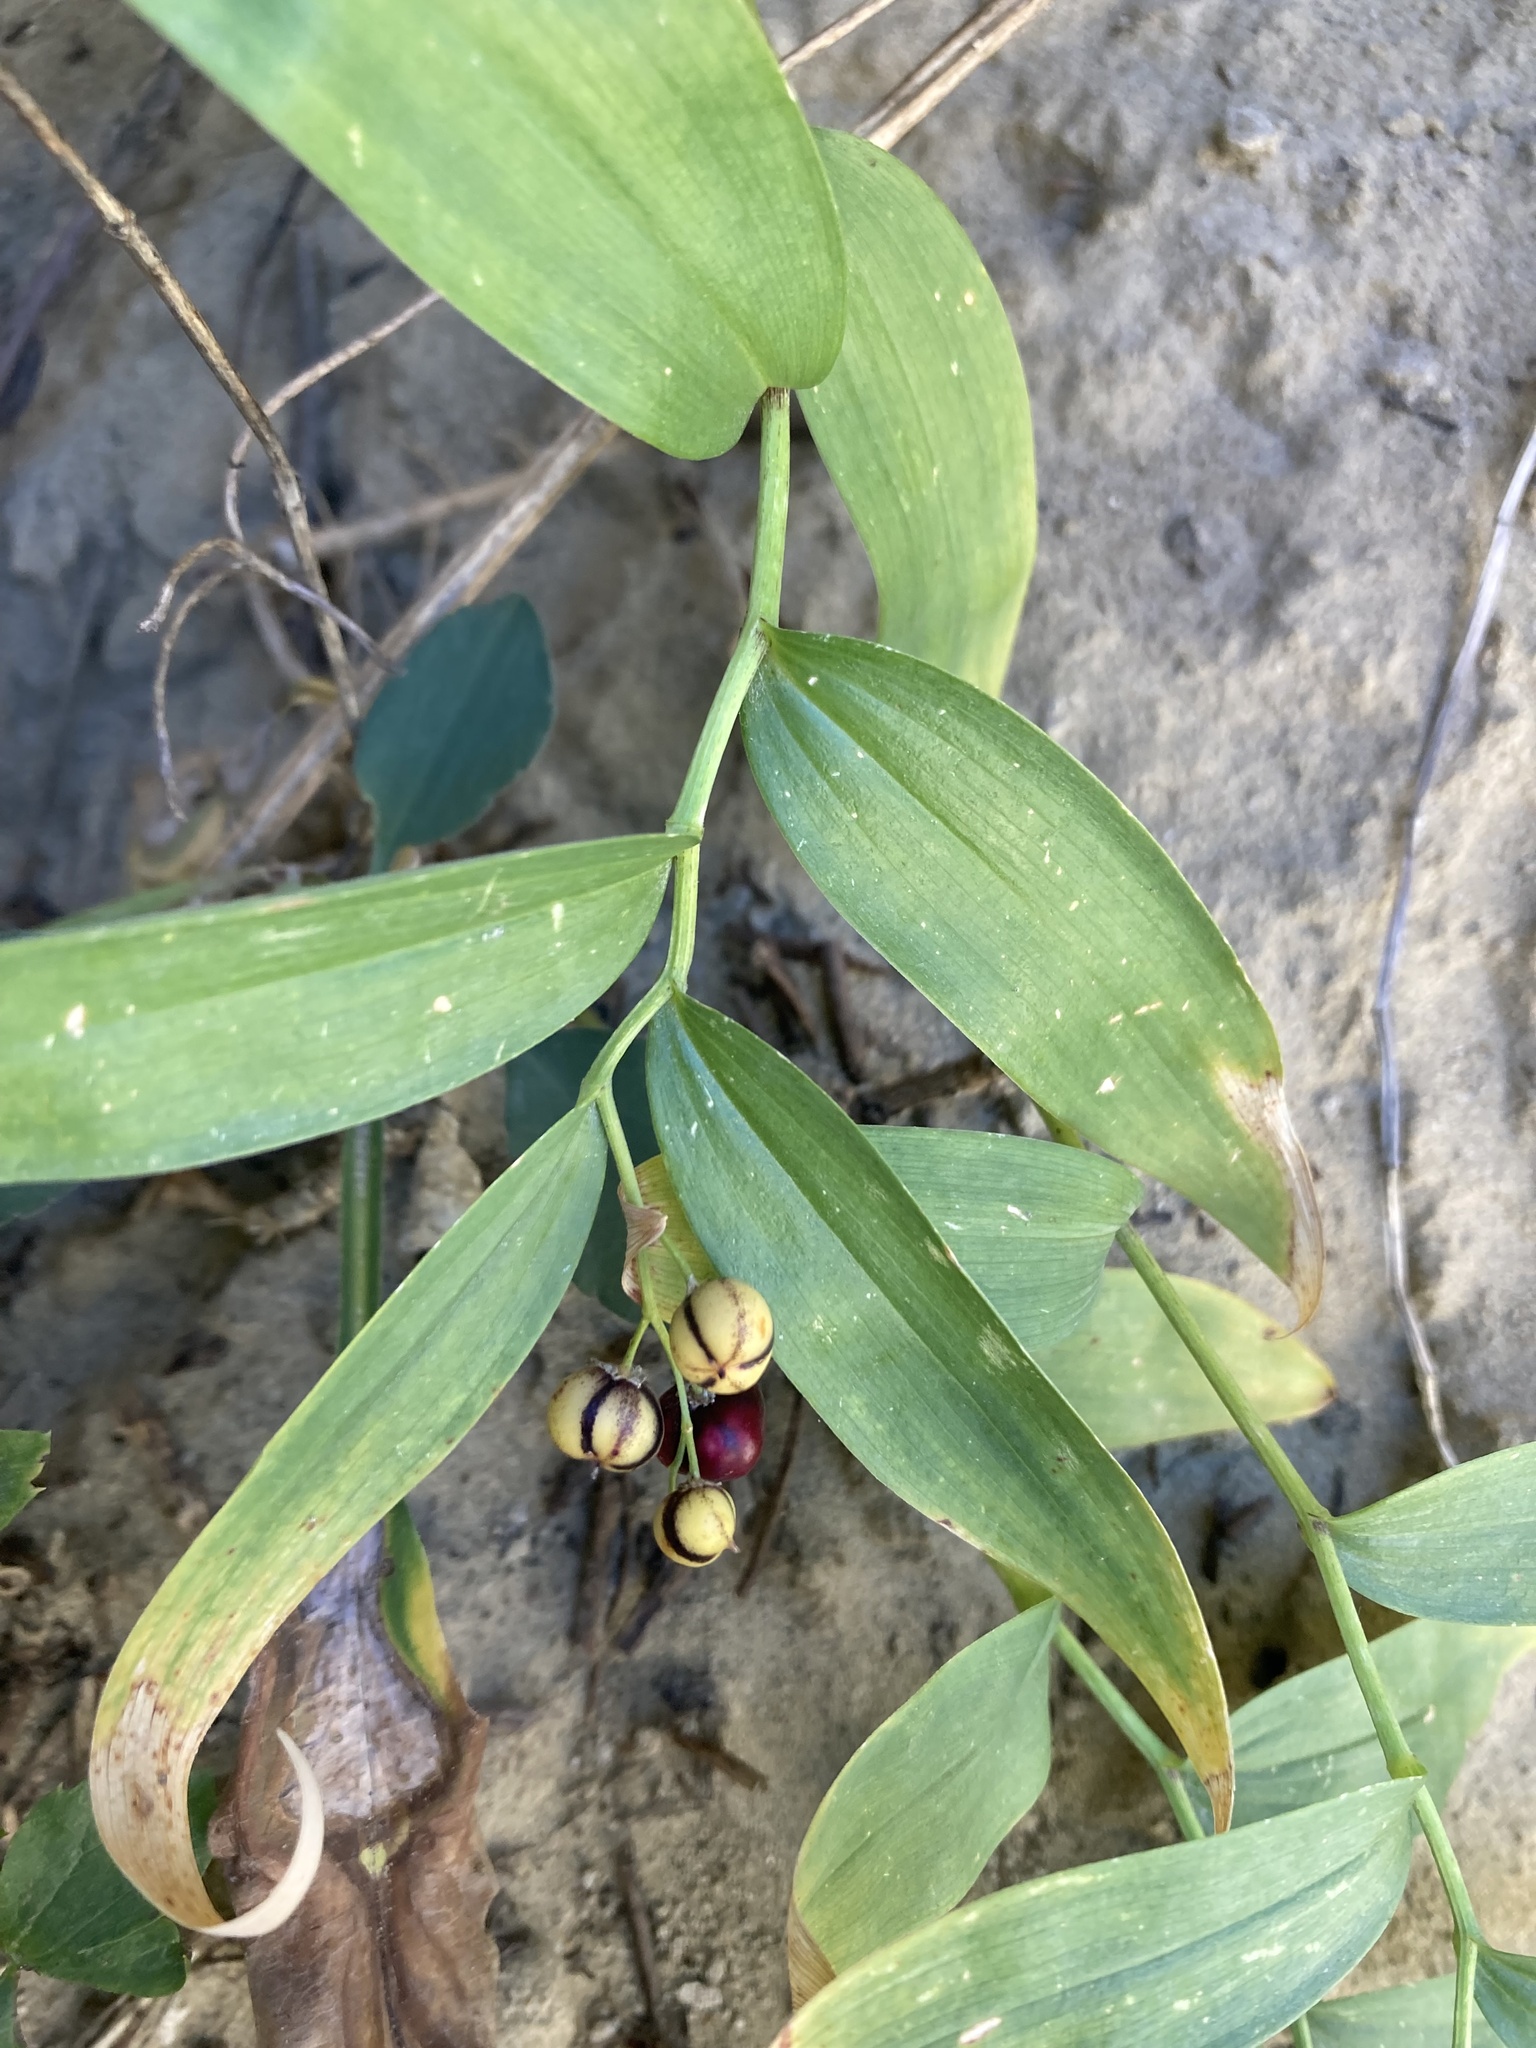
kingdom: Plantae
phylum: Tracheophyta
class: Liliopsida
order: Asparagales
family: Asparagaceae
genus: Maianthemum
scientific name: Maianthemum stellatum
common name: Little false solomon's seal
